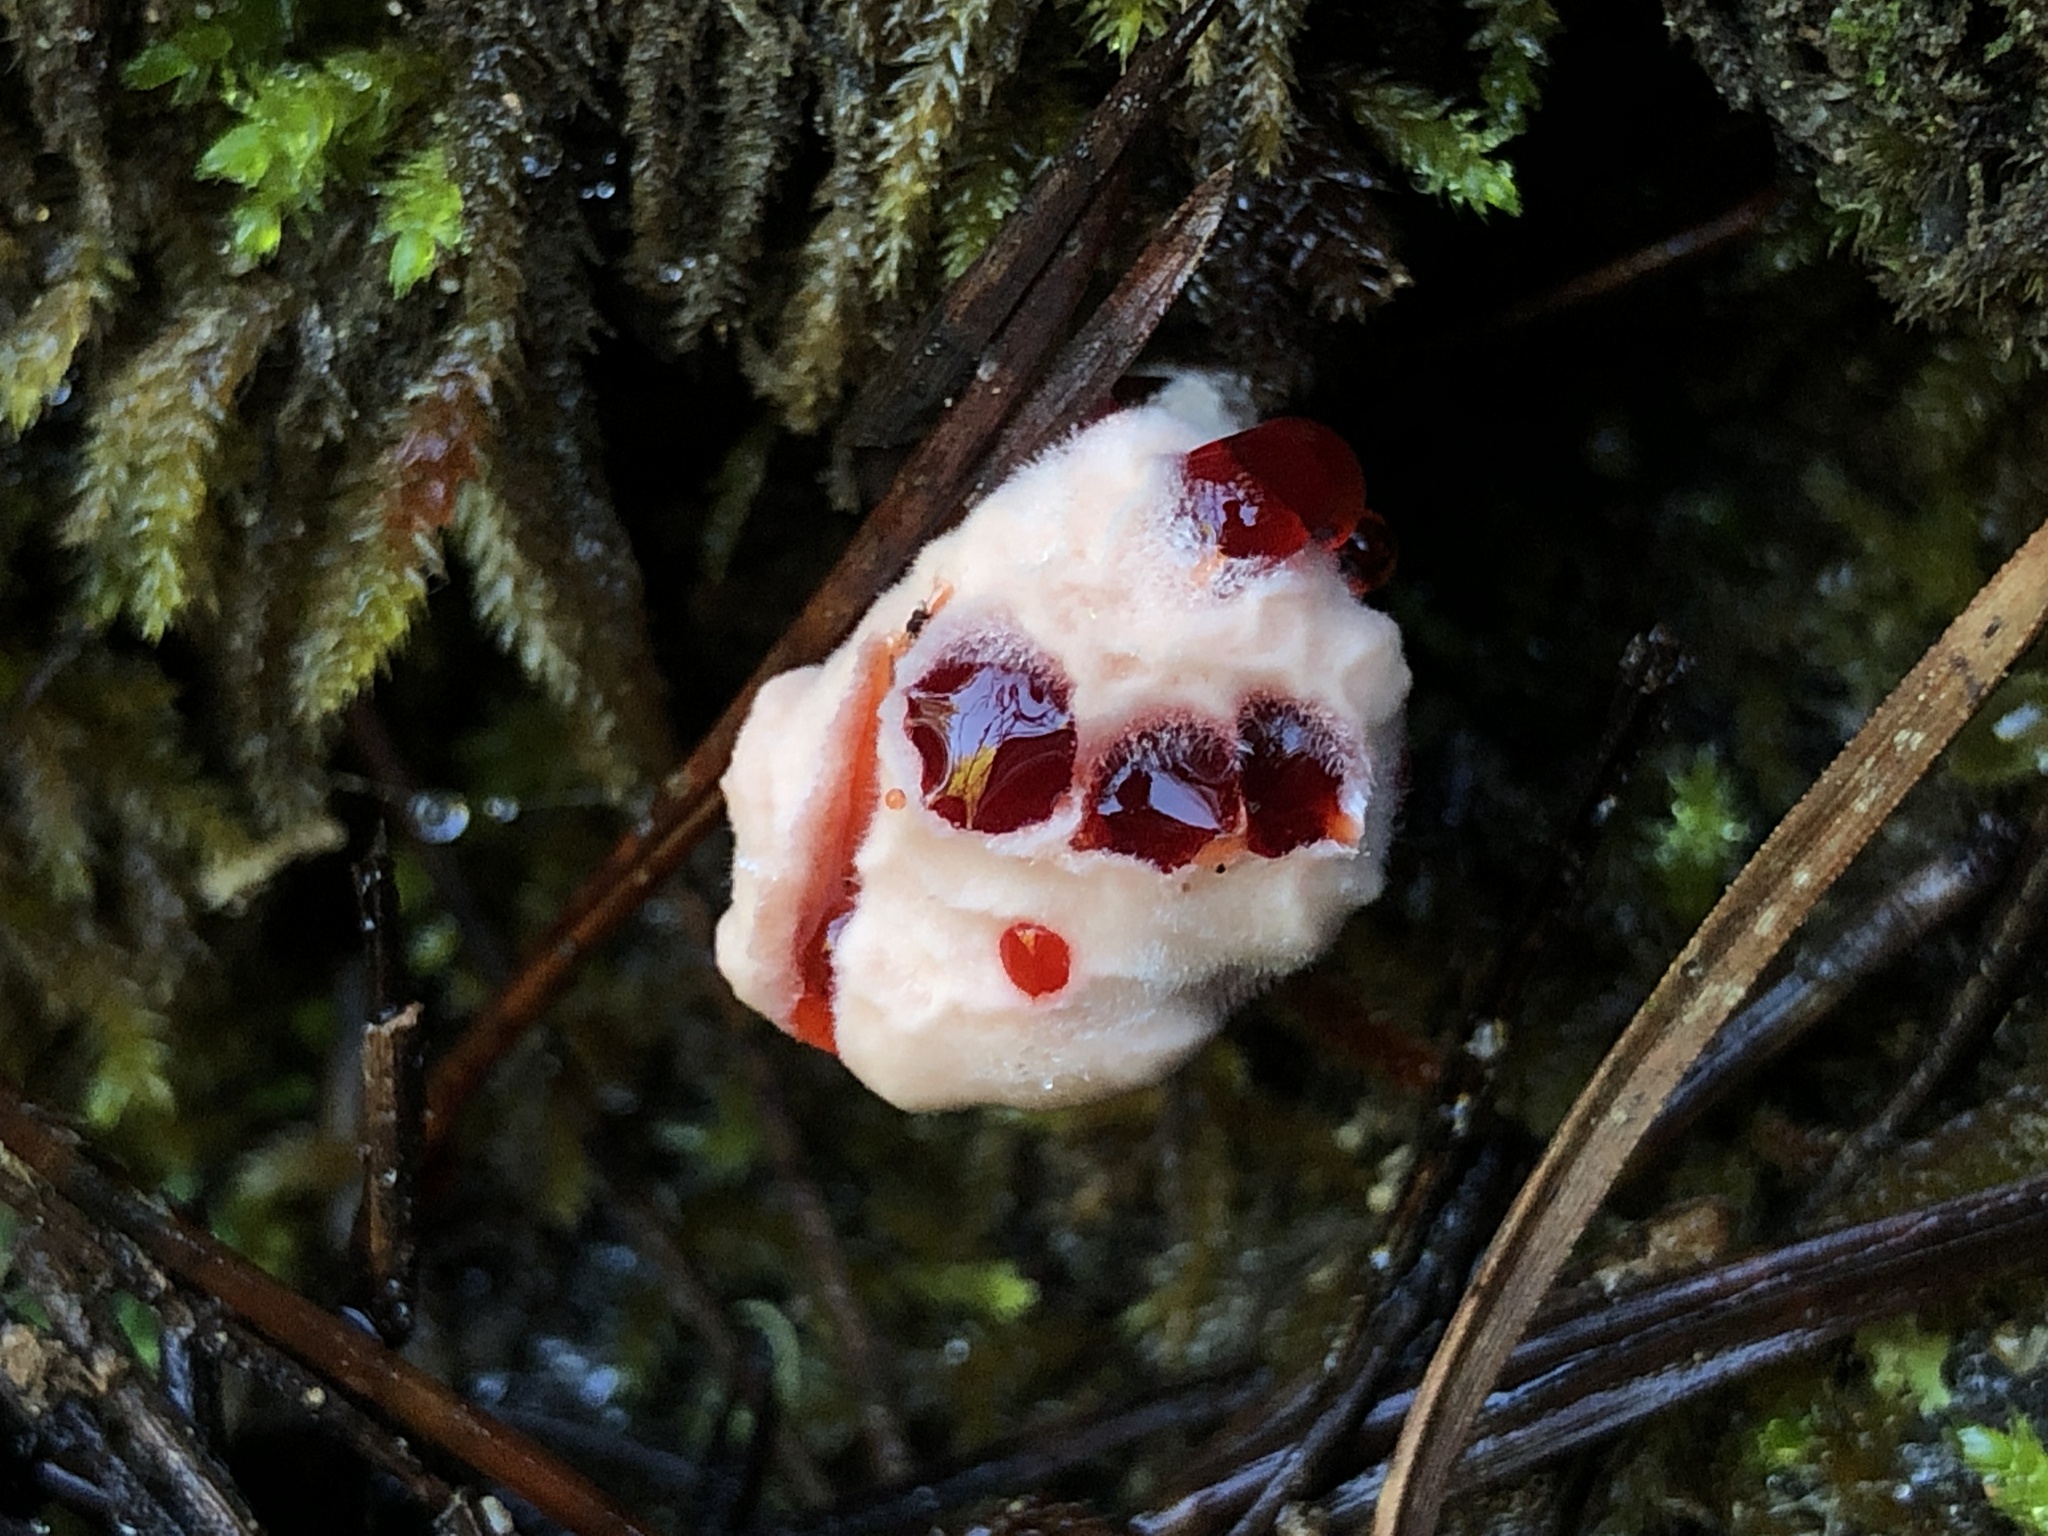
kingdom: Fungi
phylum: Basidiomycota
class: Agaricomycetes
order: Thelephorales
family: Bankeraceae
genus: Hydnellum
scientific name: Hydnellum peckii
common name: Devil's tooth
